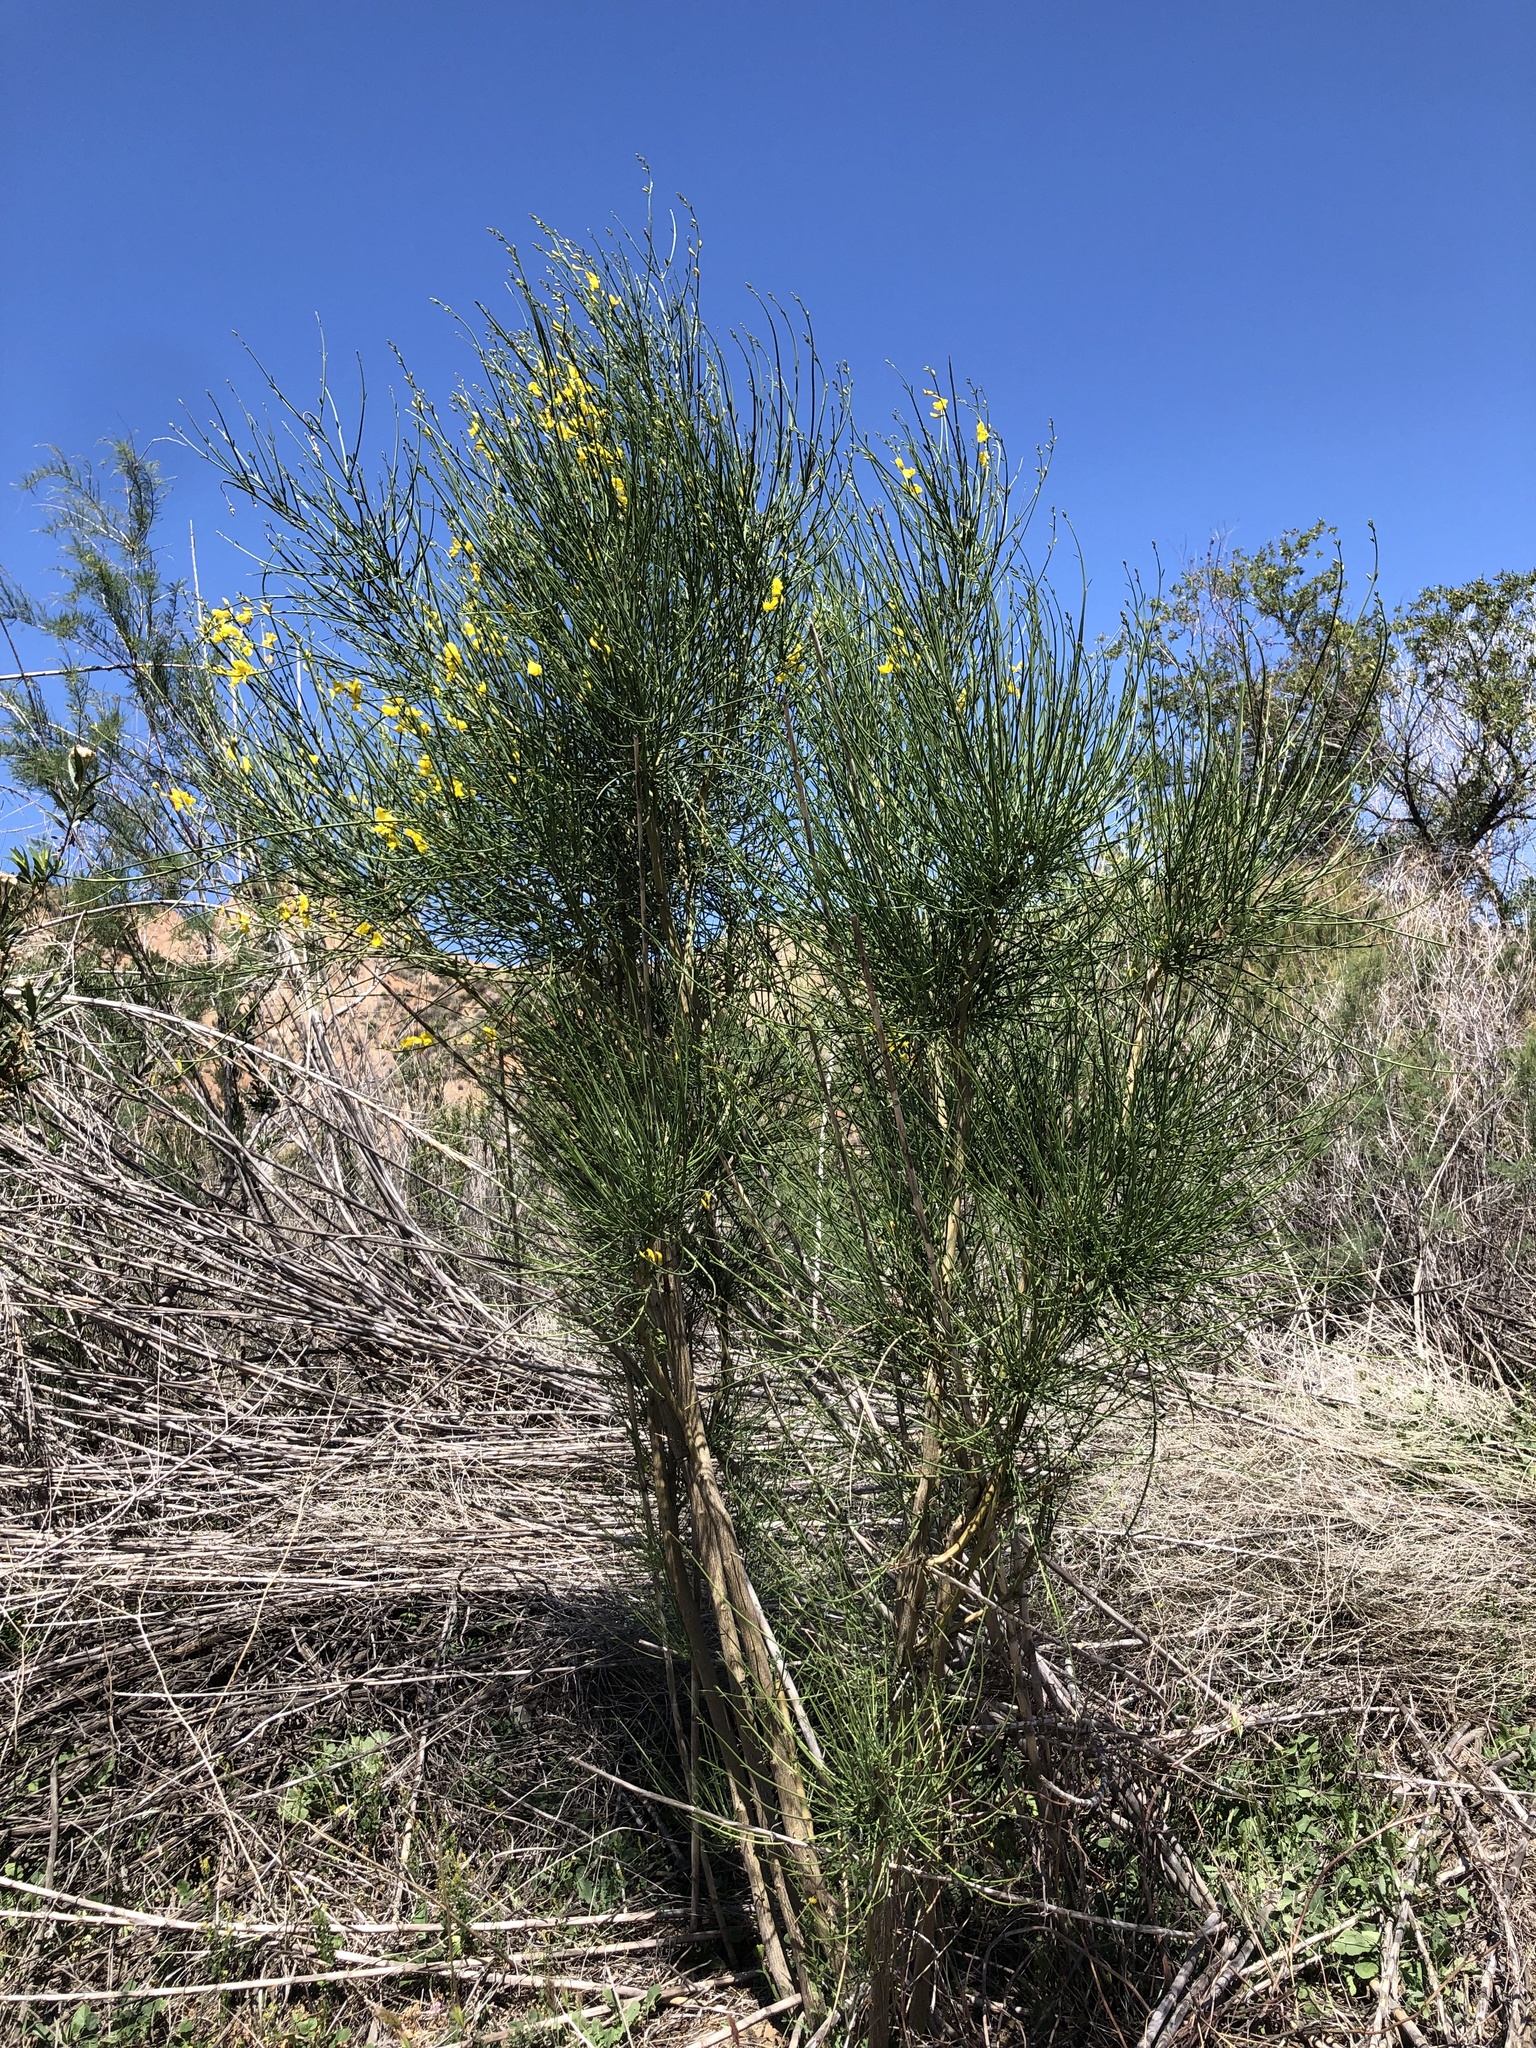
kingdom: Plantae
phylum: Tracheophyta
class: Magnoliopsida
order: Fabales
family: Fabaceae
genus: Spartium
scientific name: Spartium junceum
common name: Spanish broom
